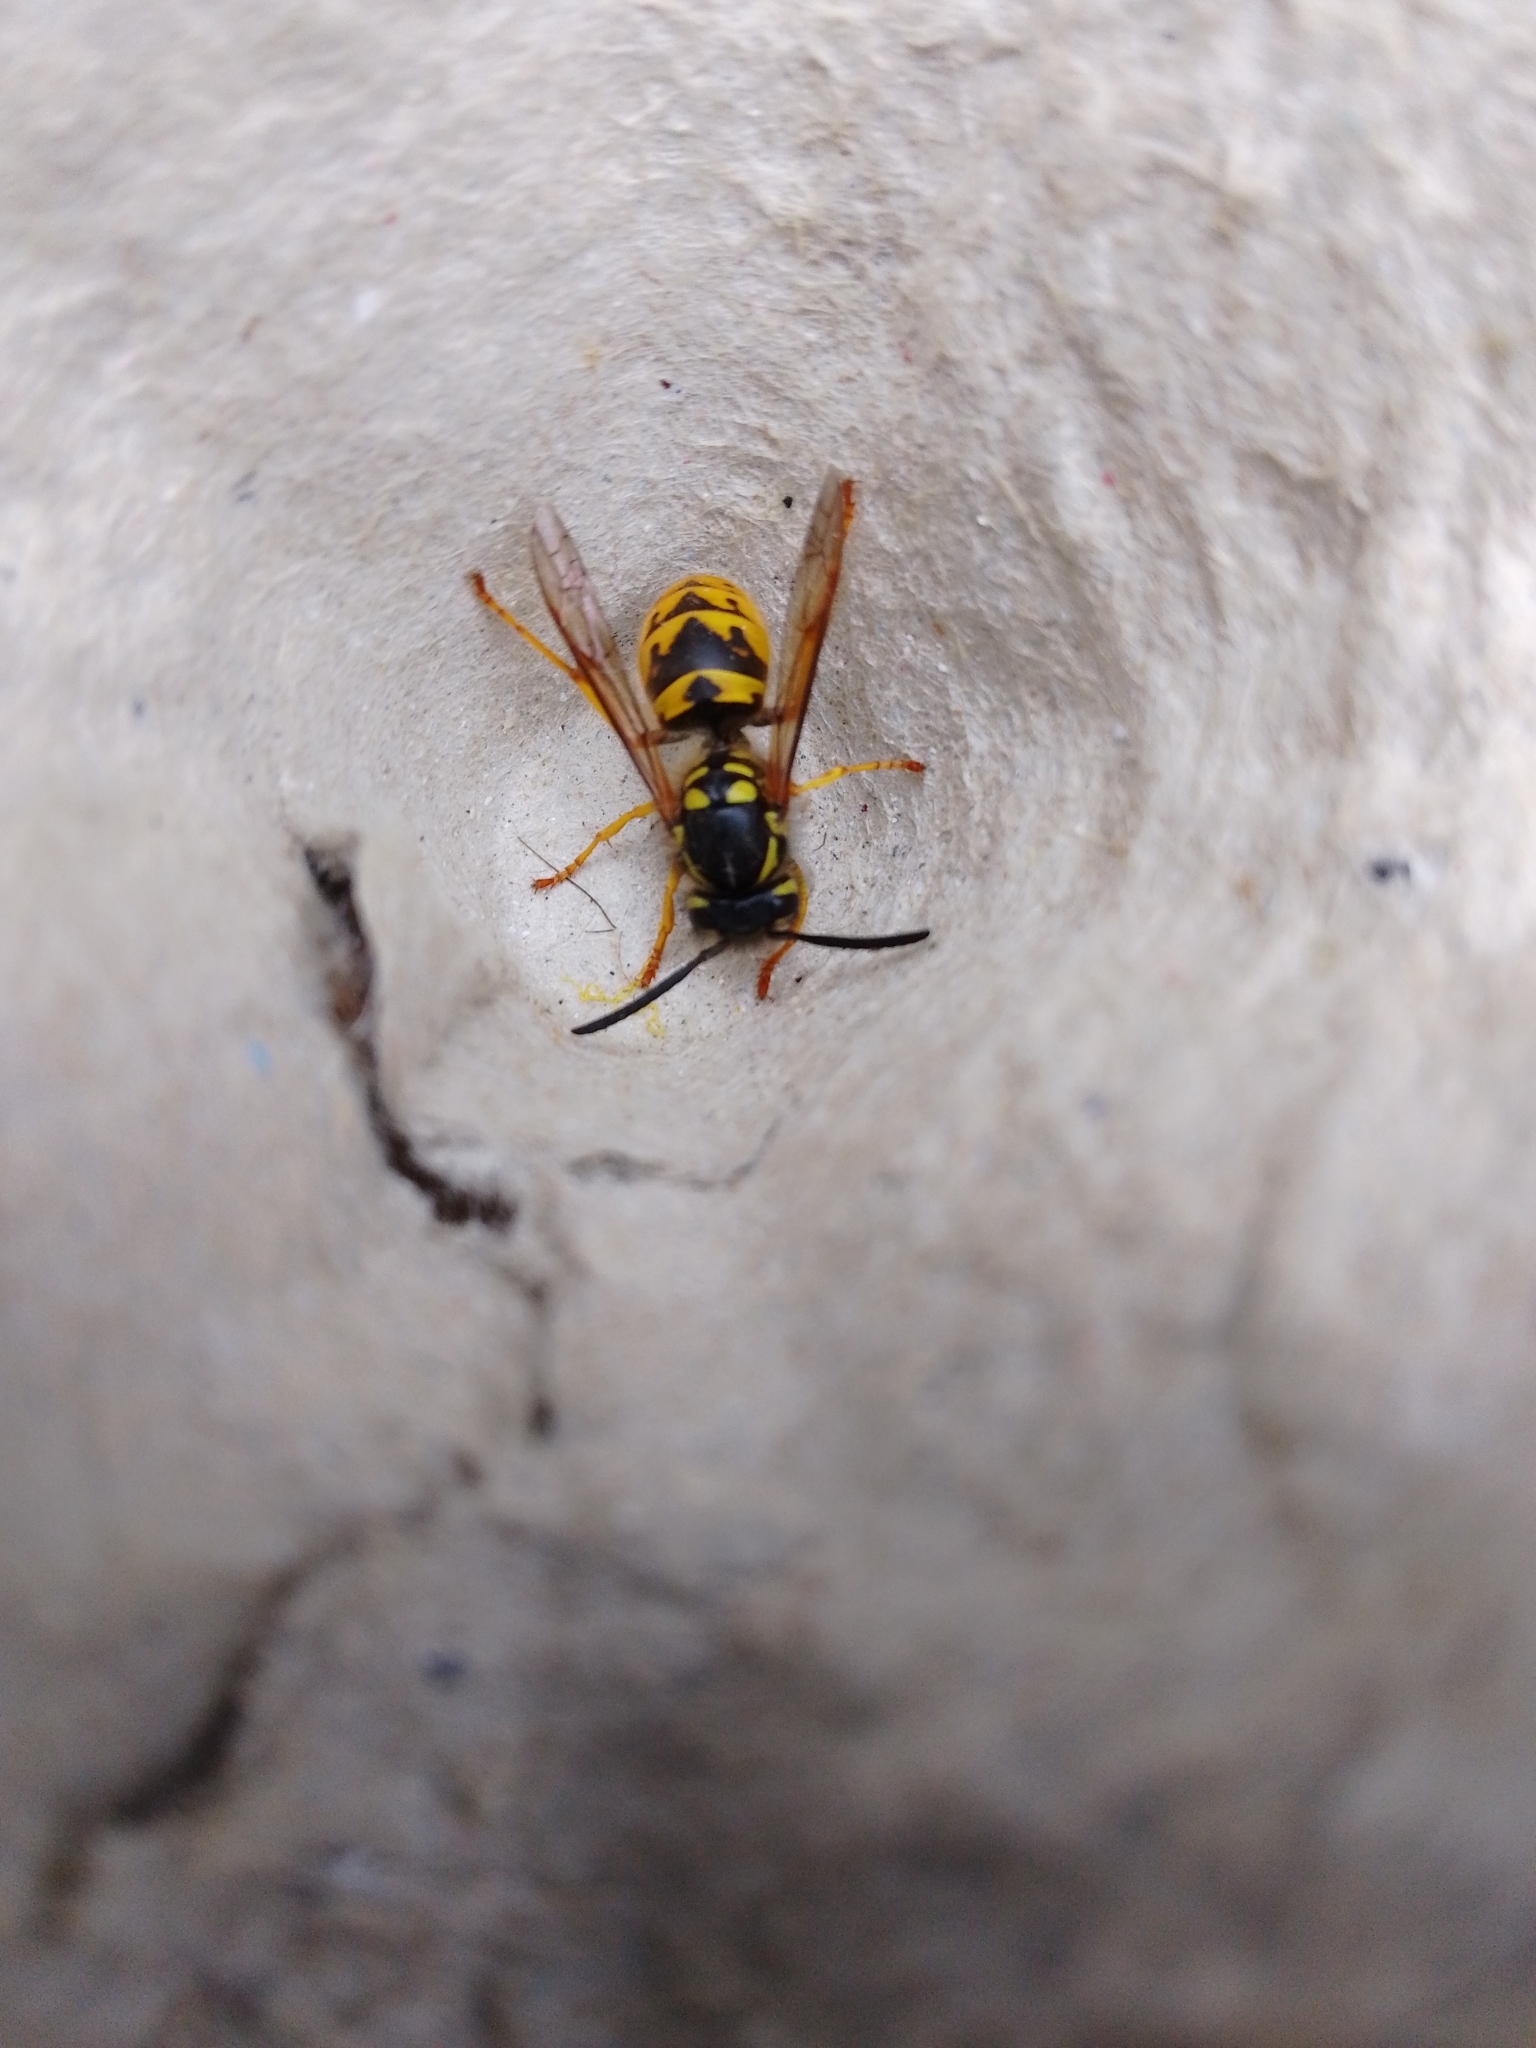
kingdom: Animalia
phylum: Arthropoda
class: Insecta
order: Hymenoptera
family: Vespidae
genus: Vespula
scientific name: Vespula germanica
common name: German wasp
